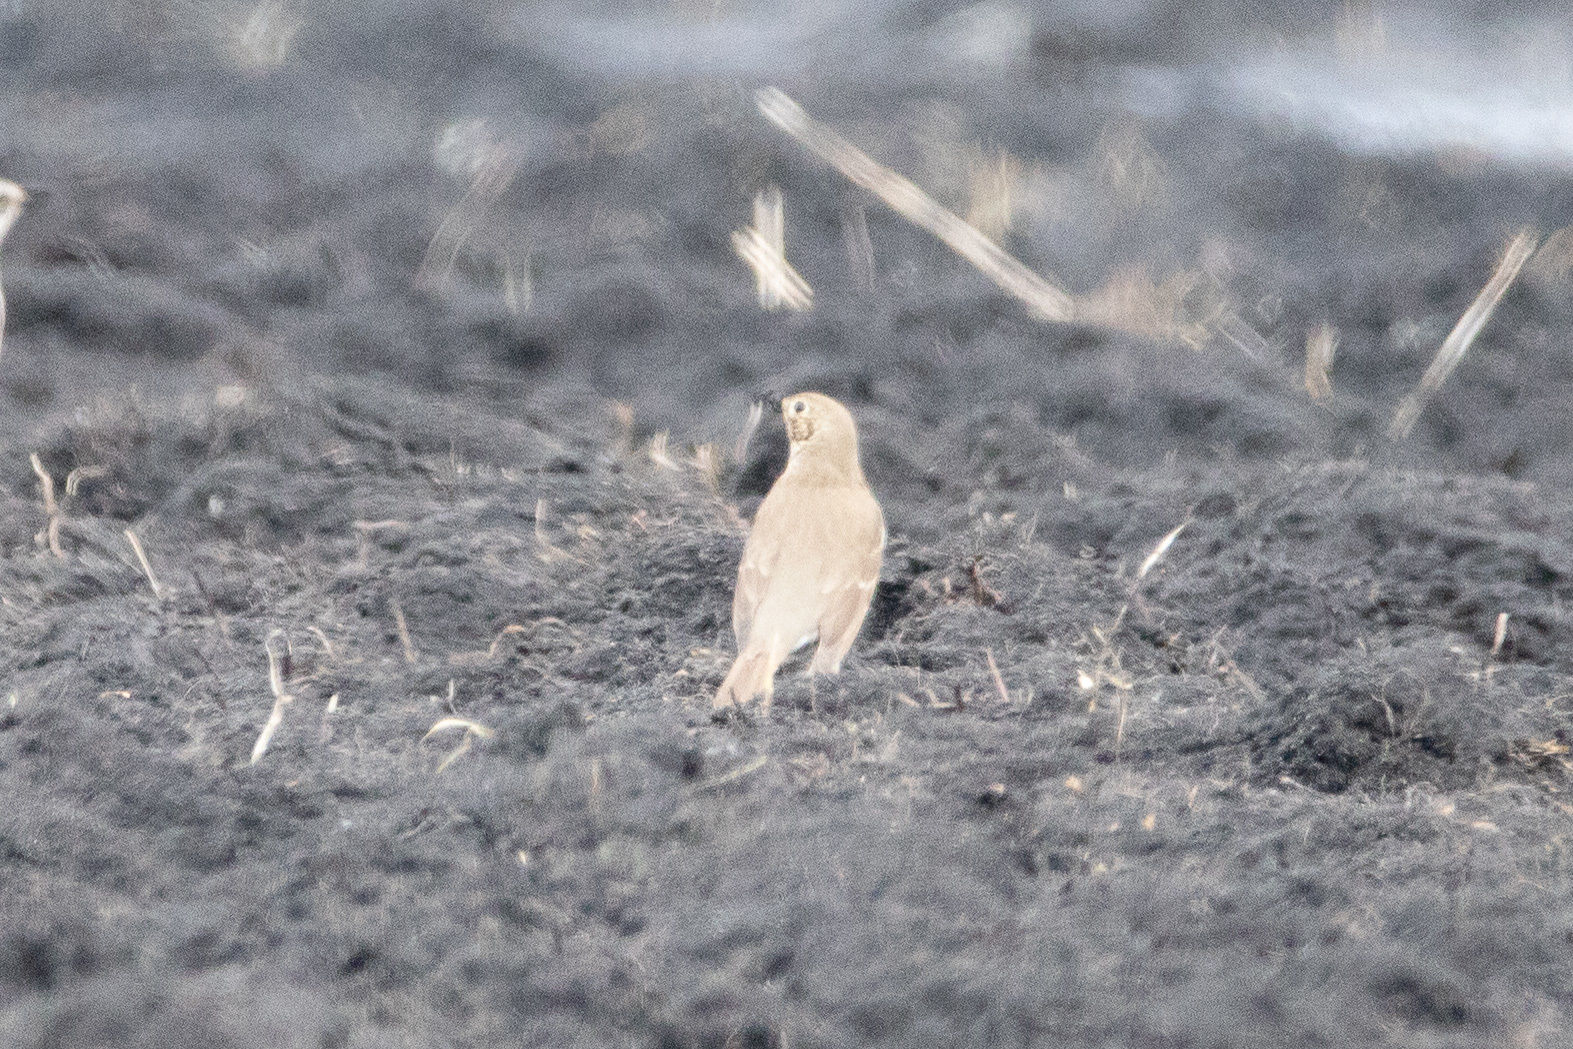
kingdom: Animalia
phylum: Chordata
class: Aves
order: Passeriformes
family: Turdidae
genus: Turdus
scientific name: Turdus philomelos
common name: Song thrush
